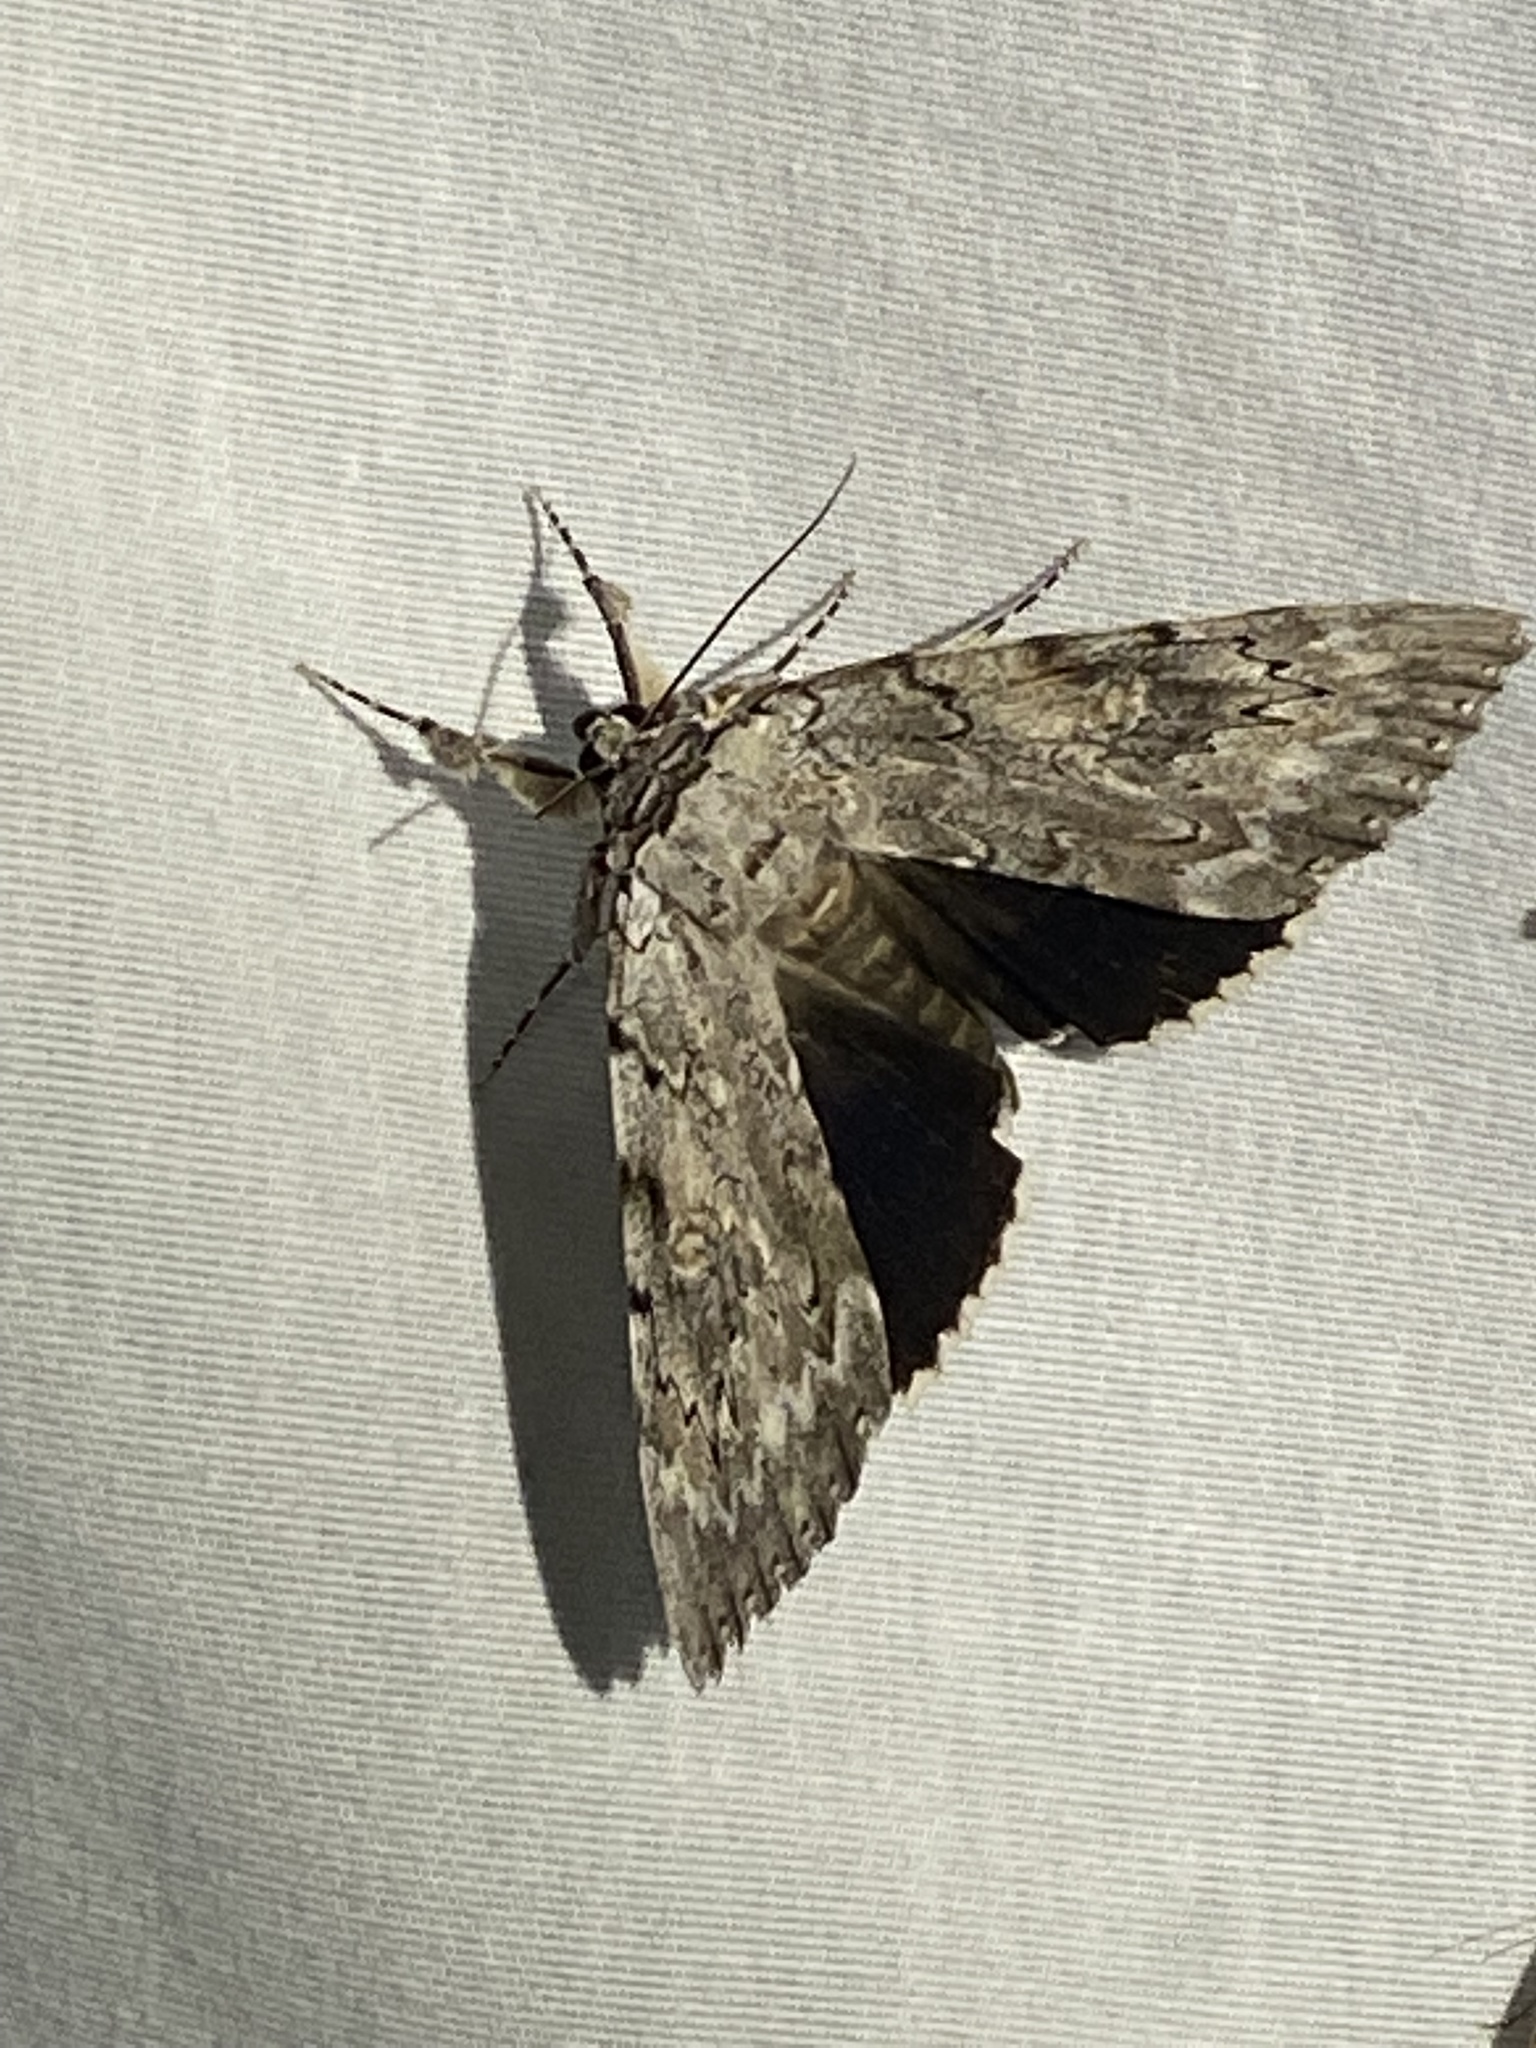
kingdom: Animalia
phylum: Arthropoda
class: Insecta
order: Lepidoptera
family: Erebidae
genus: Catocala
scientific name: Catocala robinsoni
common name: Robinson's underwing
